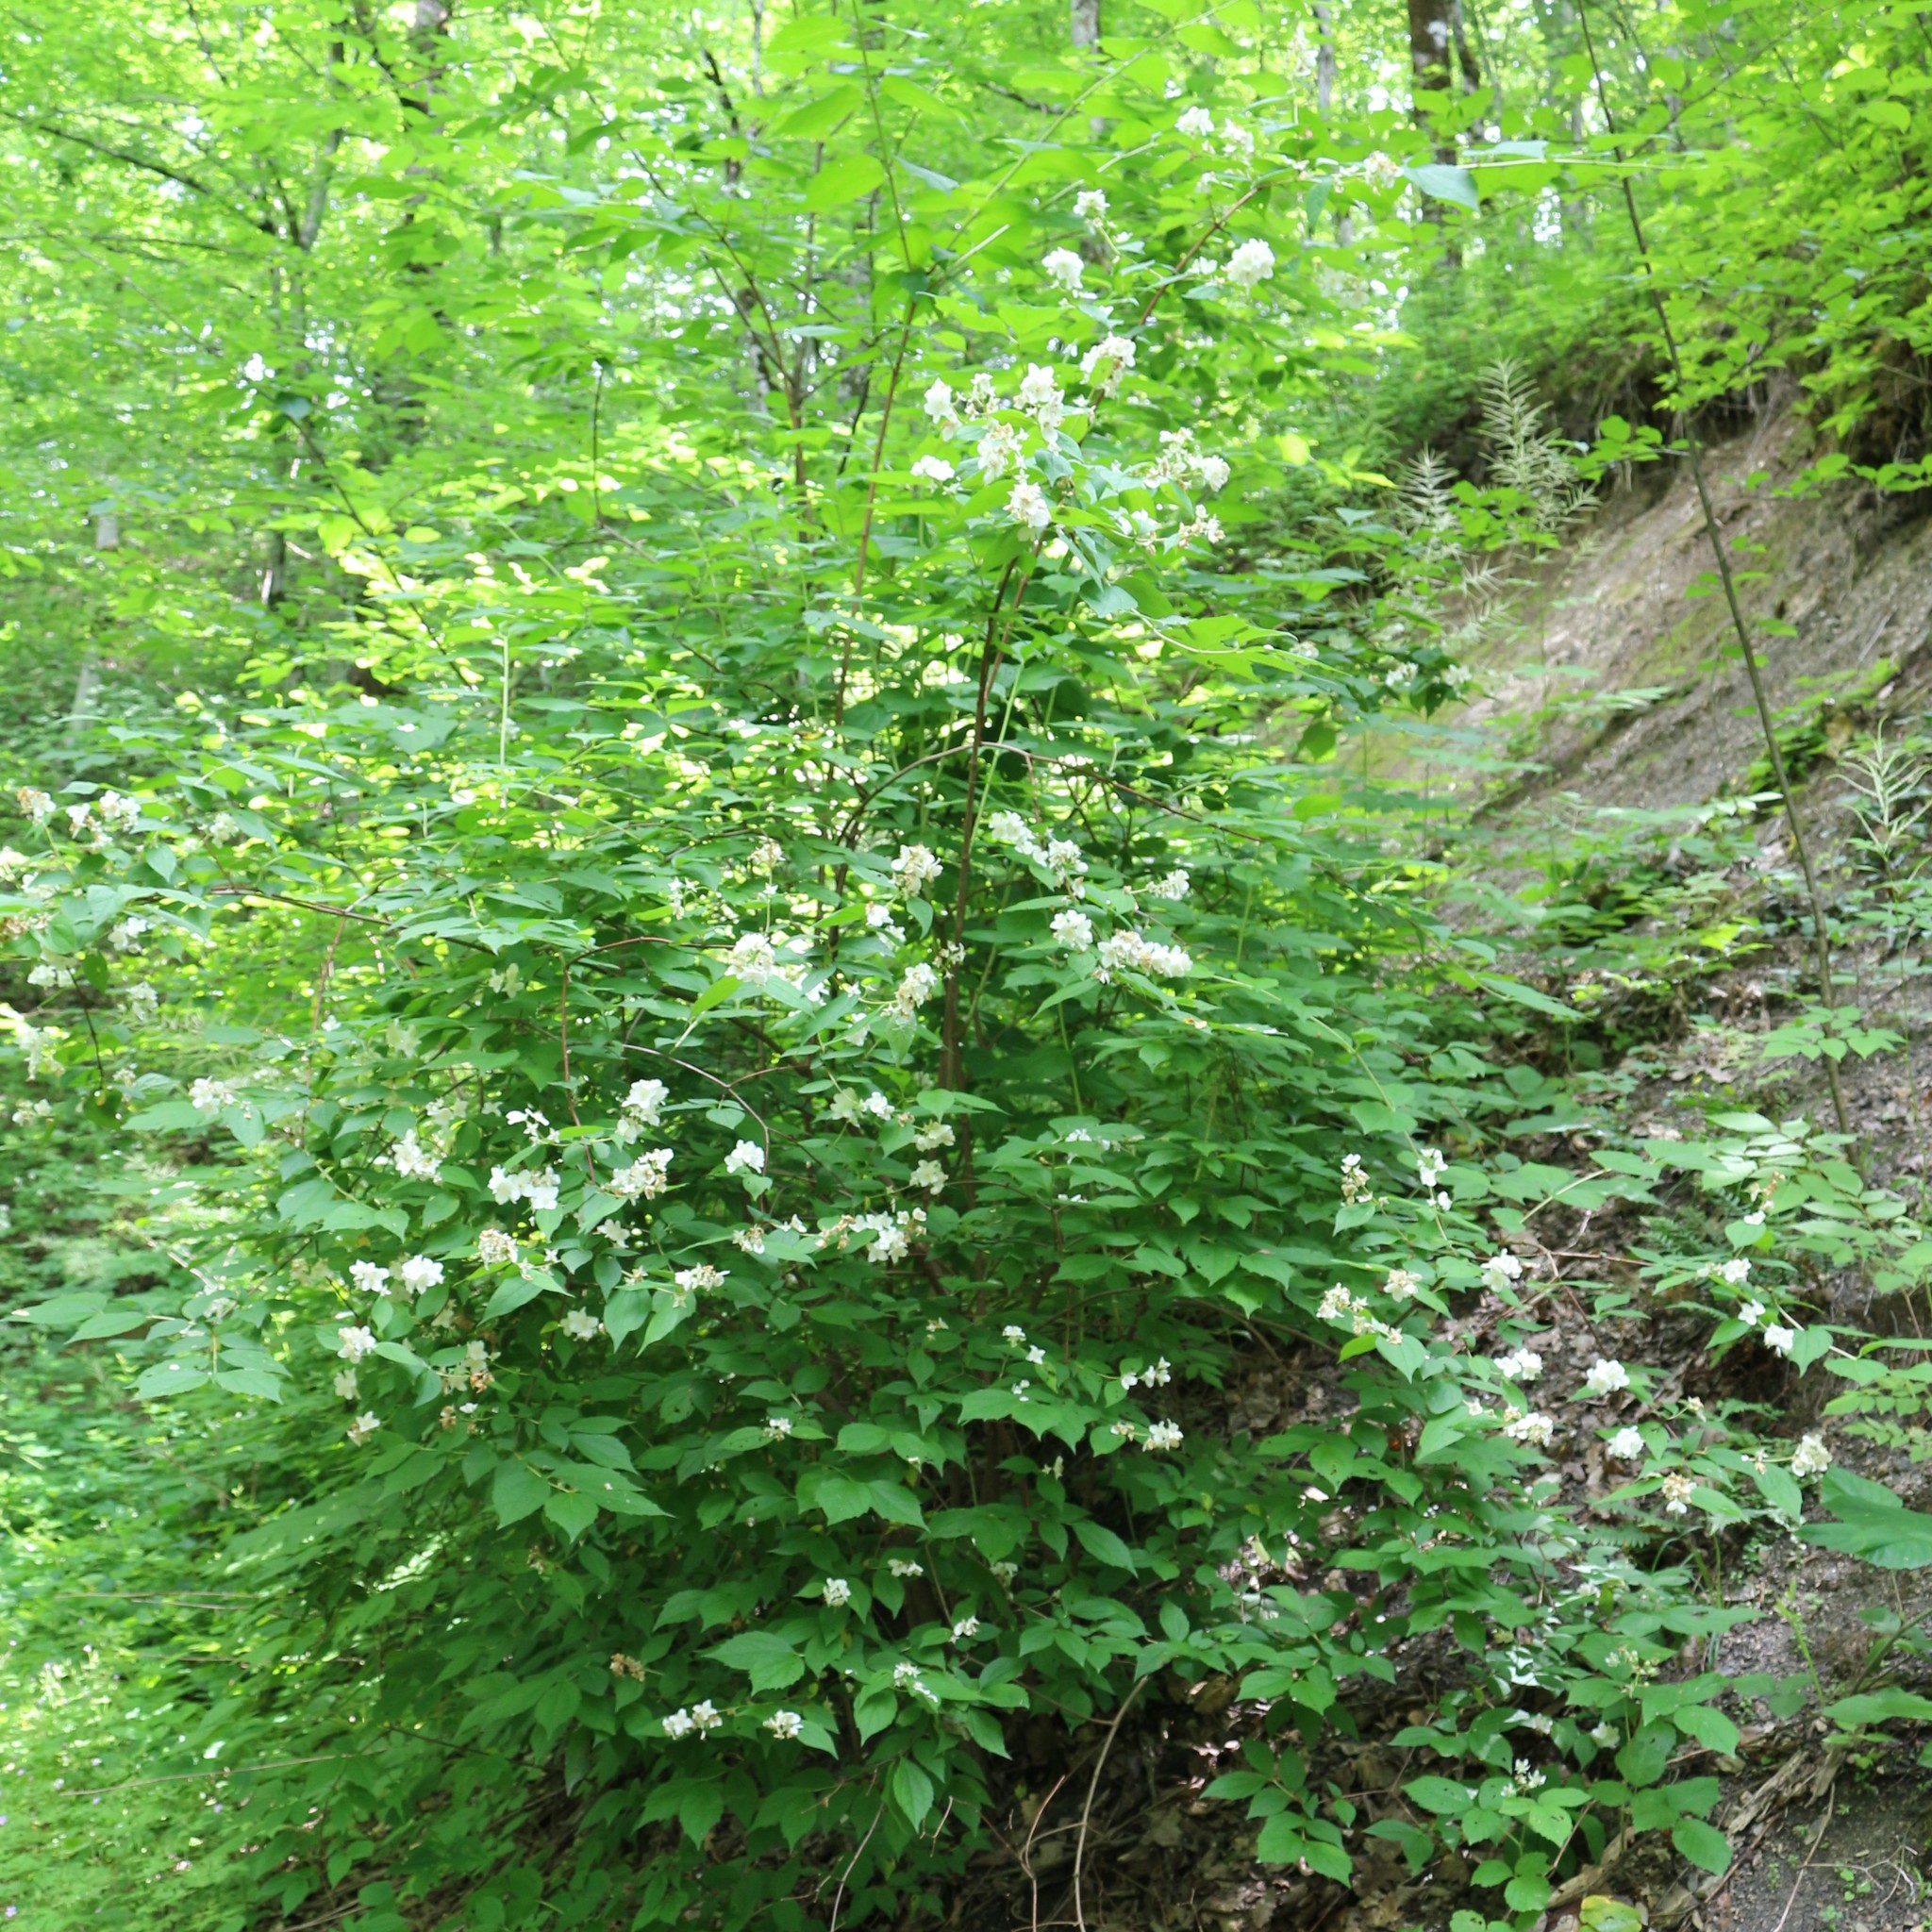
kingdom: Plantae
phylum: Tracheophyta
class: Magnoliopsida
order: Cornales
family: Hydrangeaceae
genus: Philadelphus
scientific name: Philadelphus coronarius
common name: Mock orange
